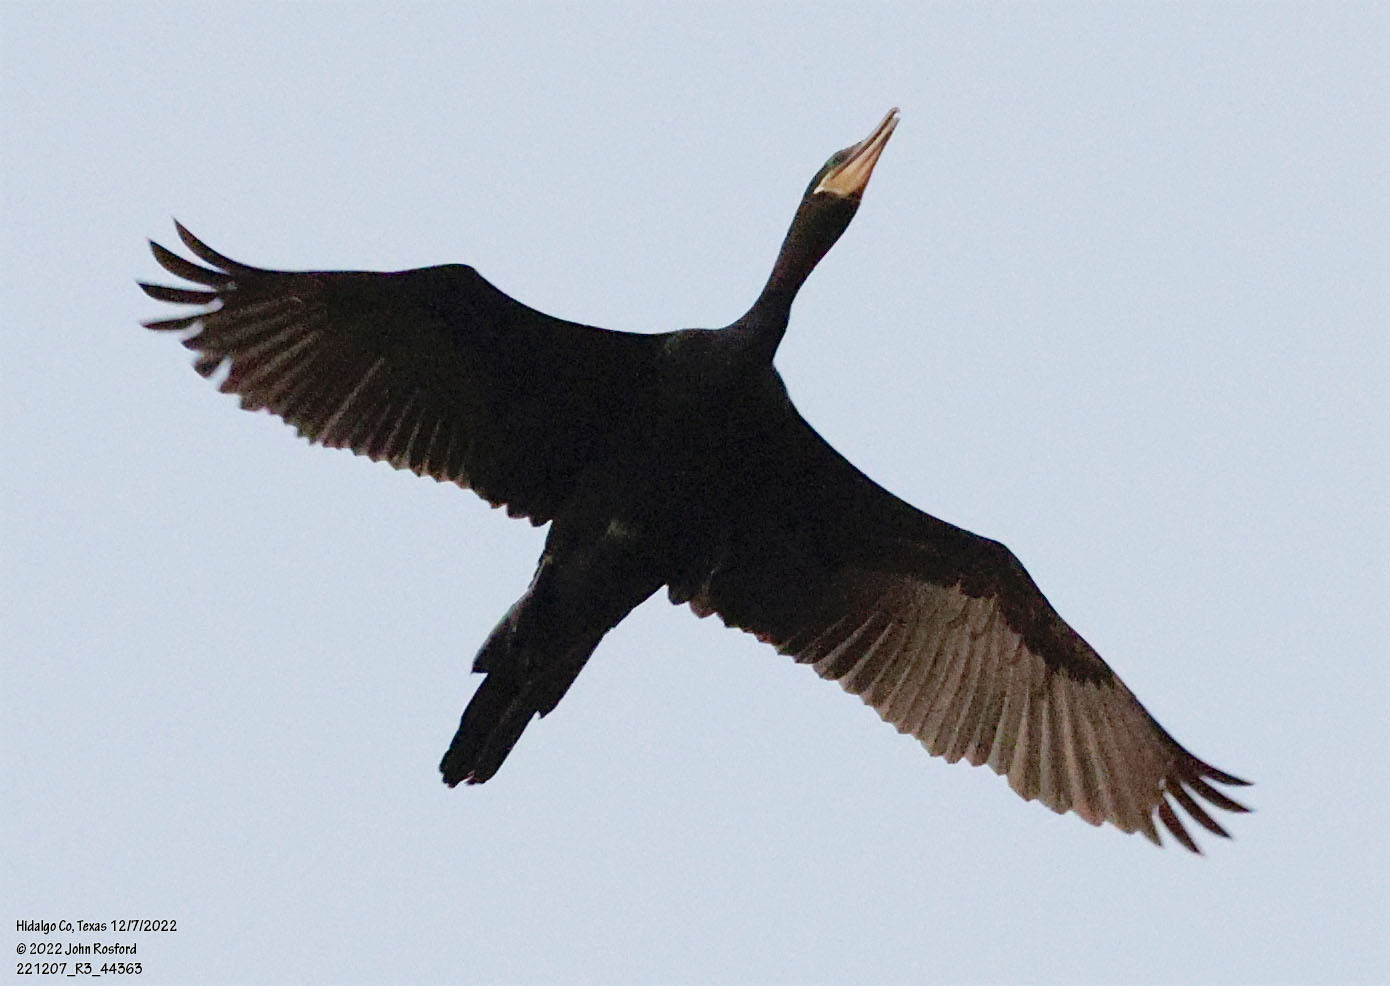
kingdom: Animalia
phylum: Chordata
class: Aves
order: Suliformes
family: Phalacrocoracidae
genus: Phalacrocorax
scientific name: Phalacrocorax brasilianus
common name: Neotropic cormorant
